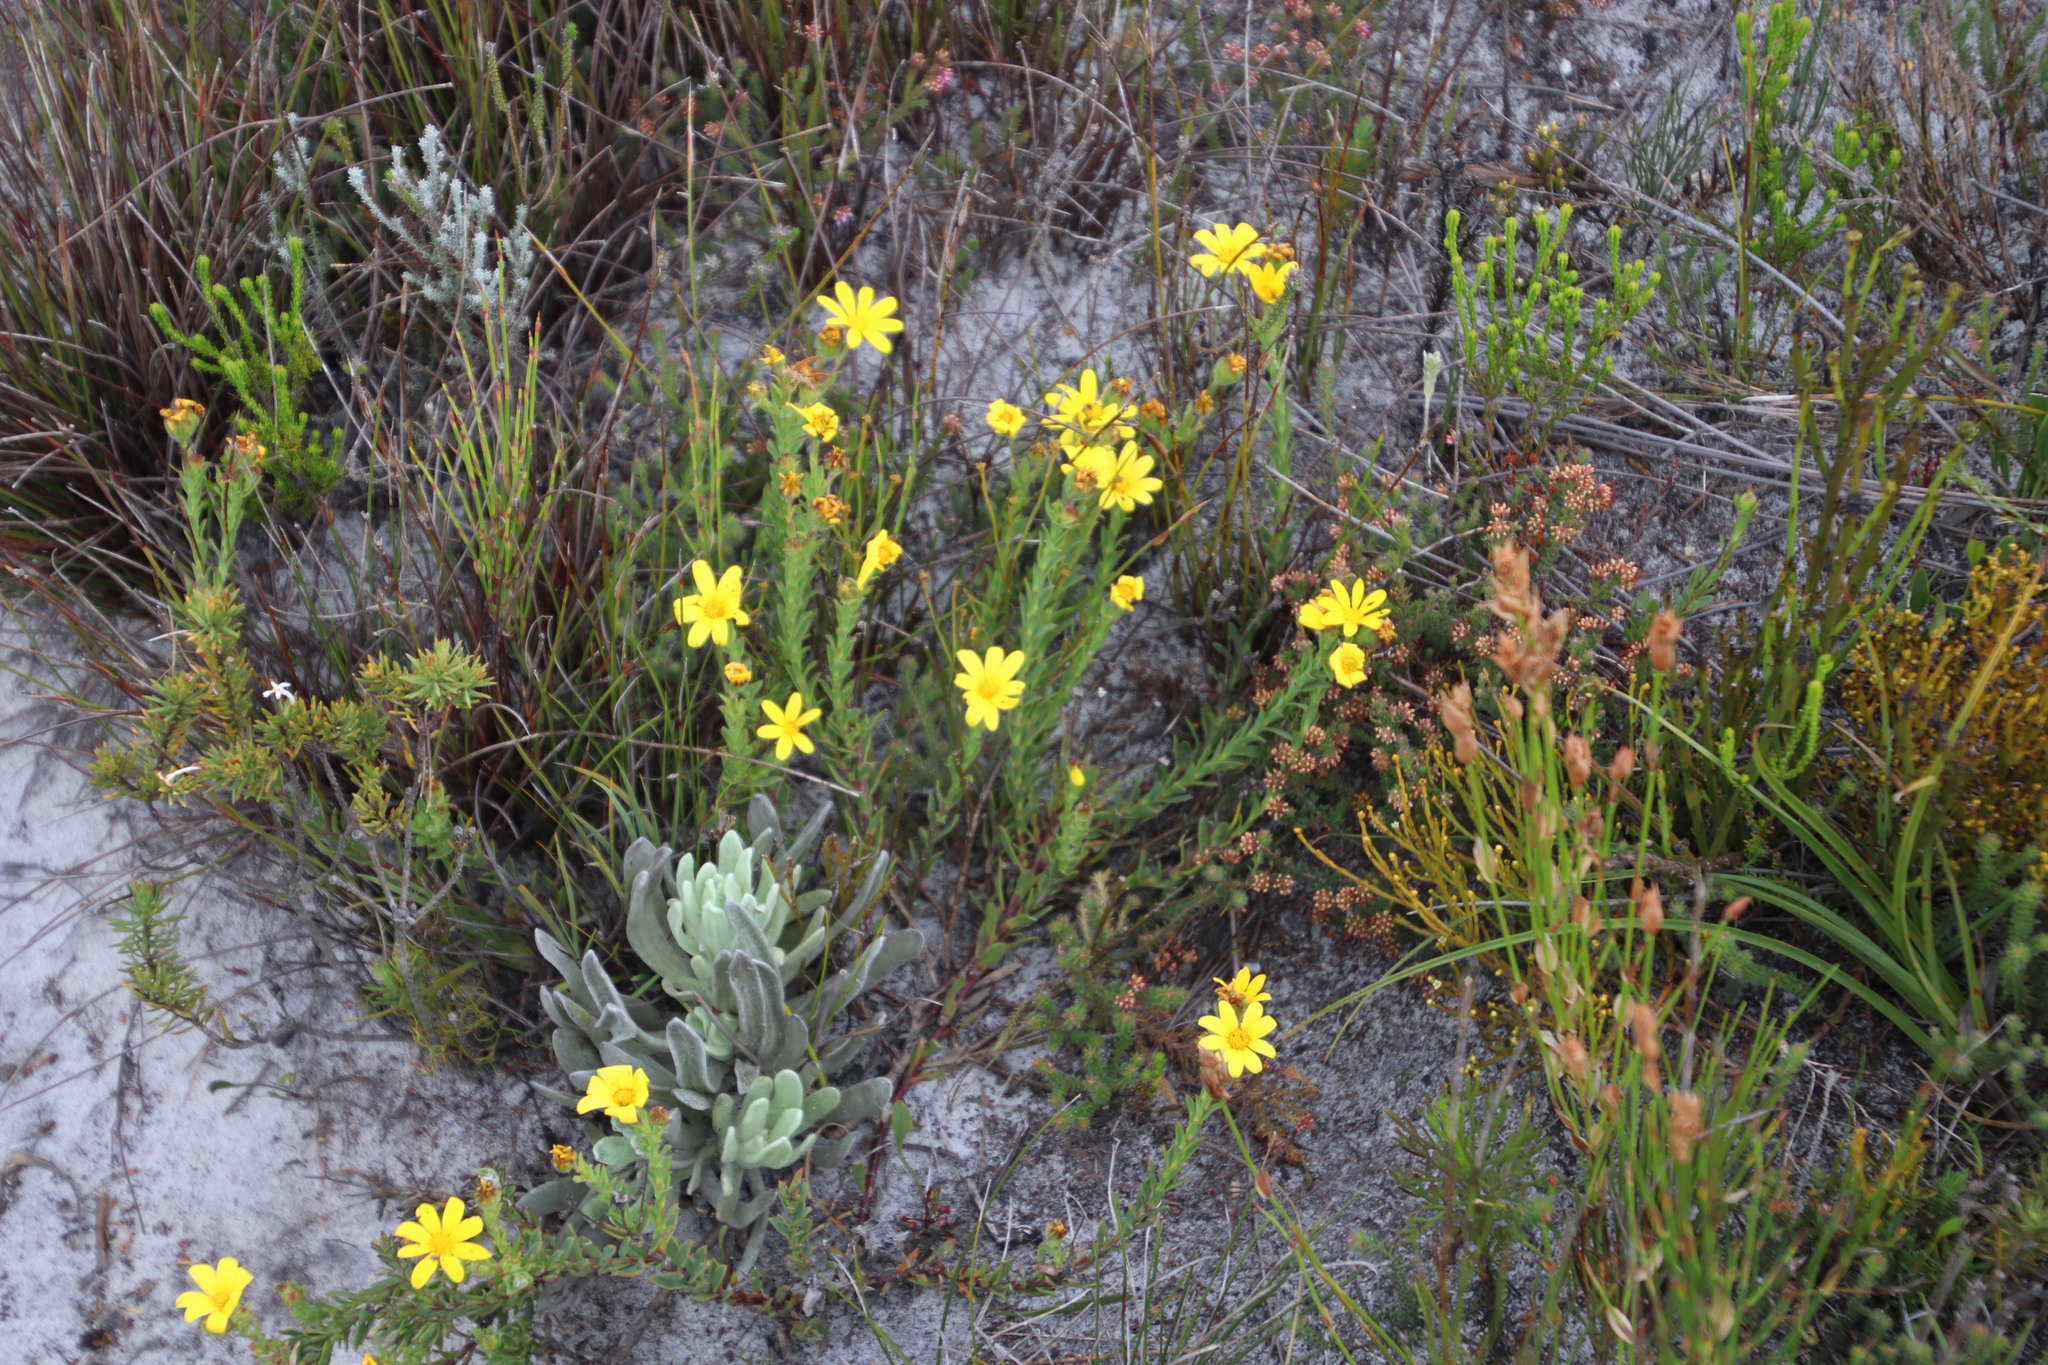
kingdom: Plantae
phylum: Tracheophyta
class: Magnoliopsida
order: Asterales
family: Asteraceae
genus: Osteospermum
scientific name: Osteospermum polygaloides
